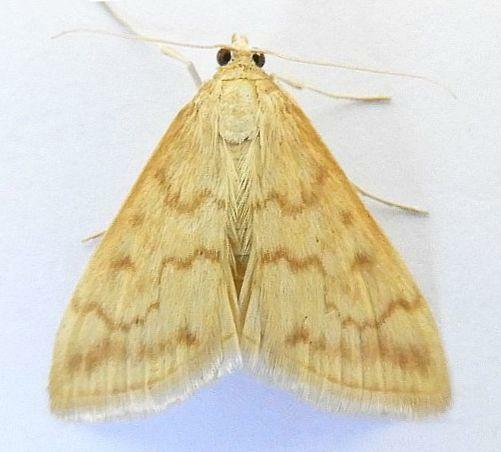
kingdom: Animalia
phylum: Arthropoda
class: Insecta
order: Lepidoptera
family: Crambidae
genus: Hahncappsia
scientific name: Hahncappsia pergilvalis
